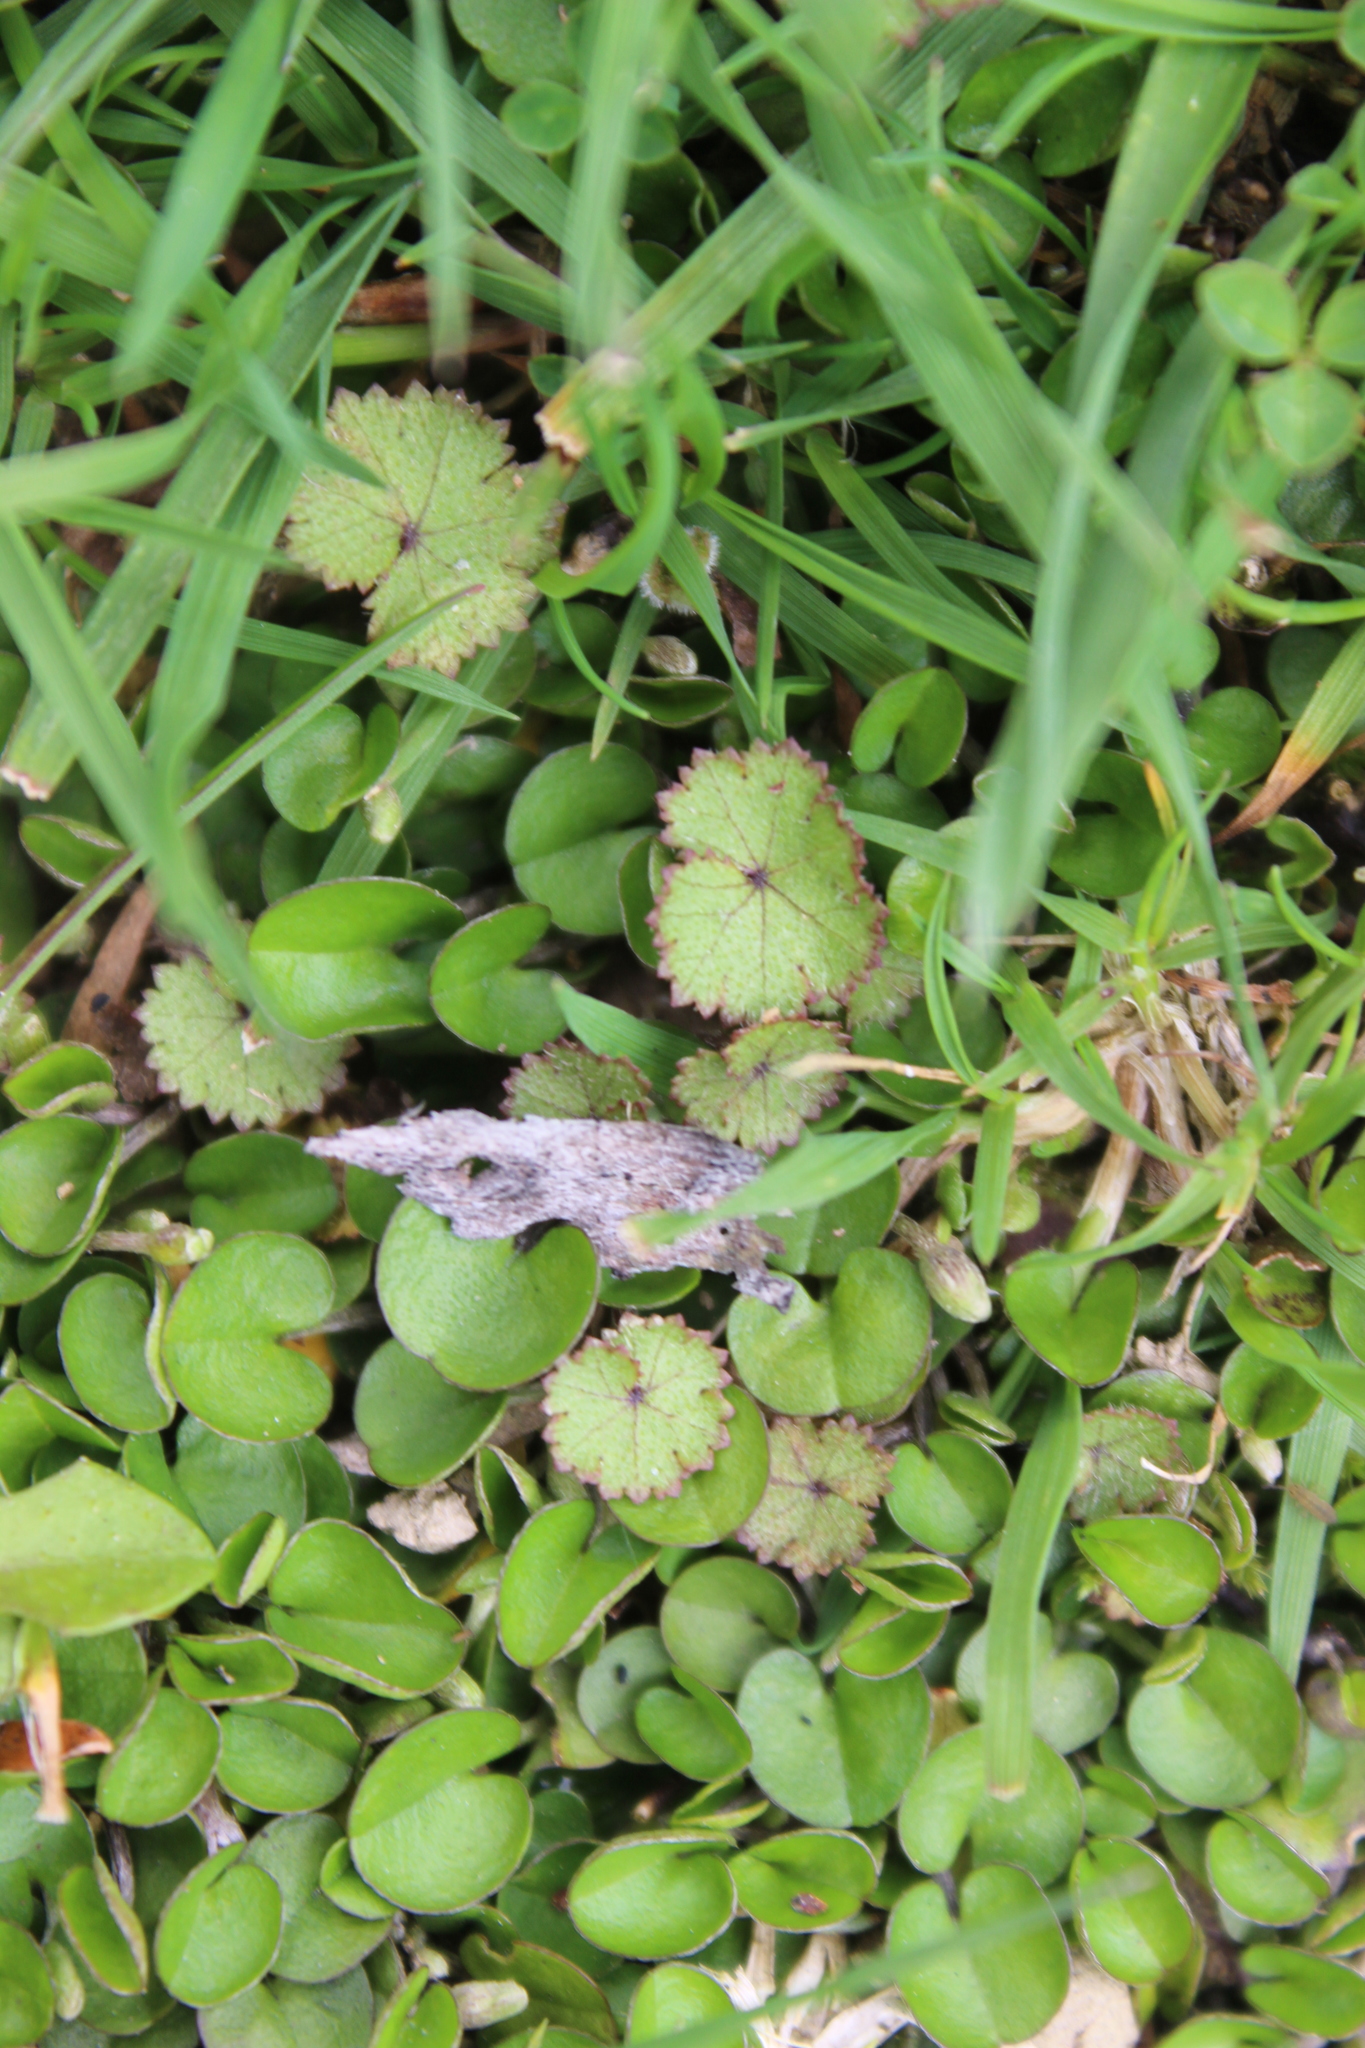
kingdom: Plantae
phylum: Tracheophyta
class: Magnoliopsida
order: Apiales
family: Araliaceae
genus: Hydrocotyle
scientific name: Hydrocotyle moschata
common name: Hairy pennywort
